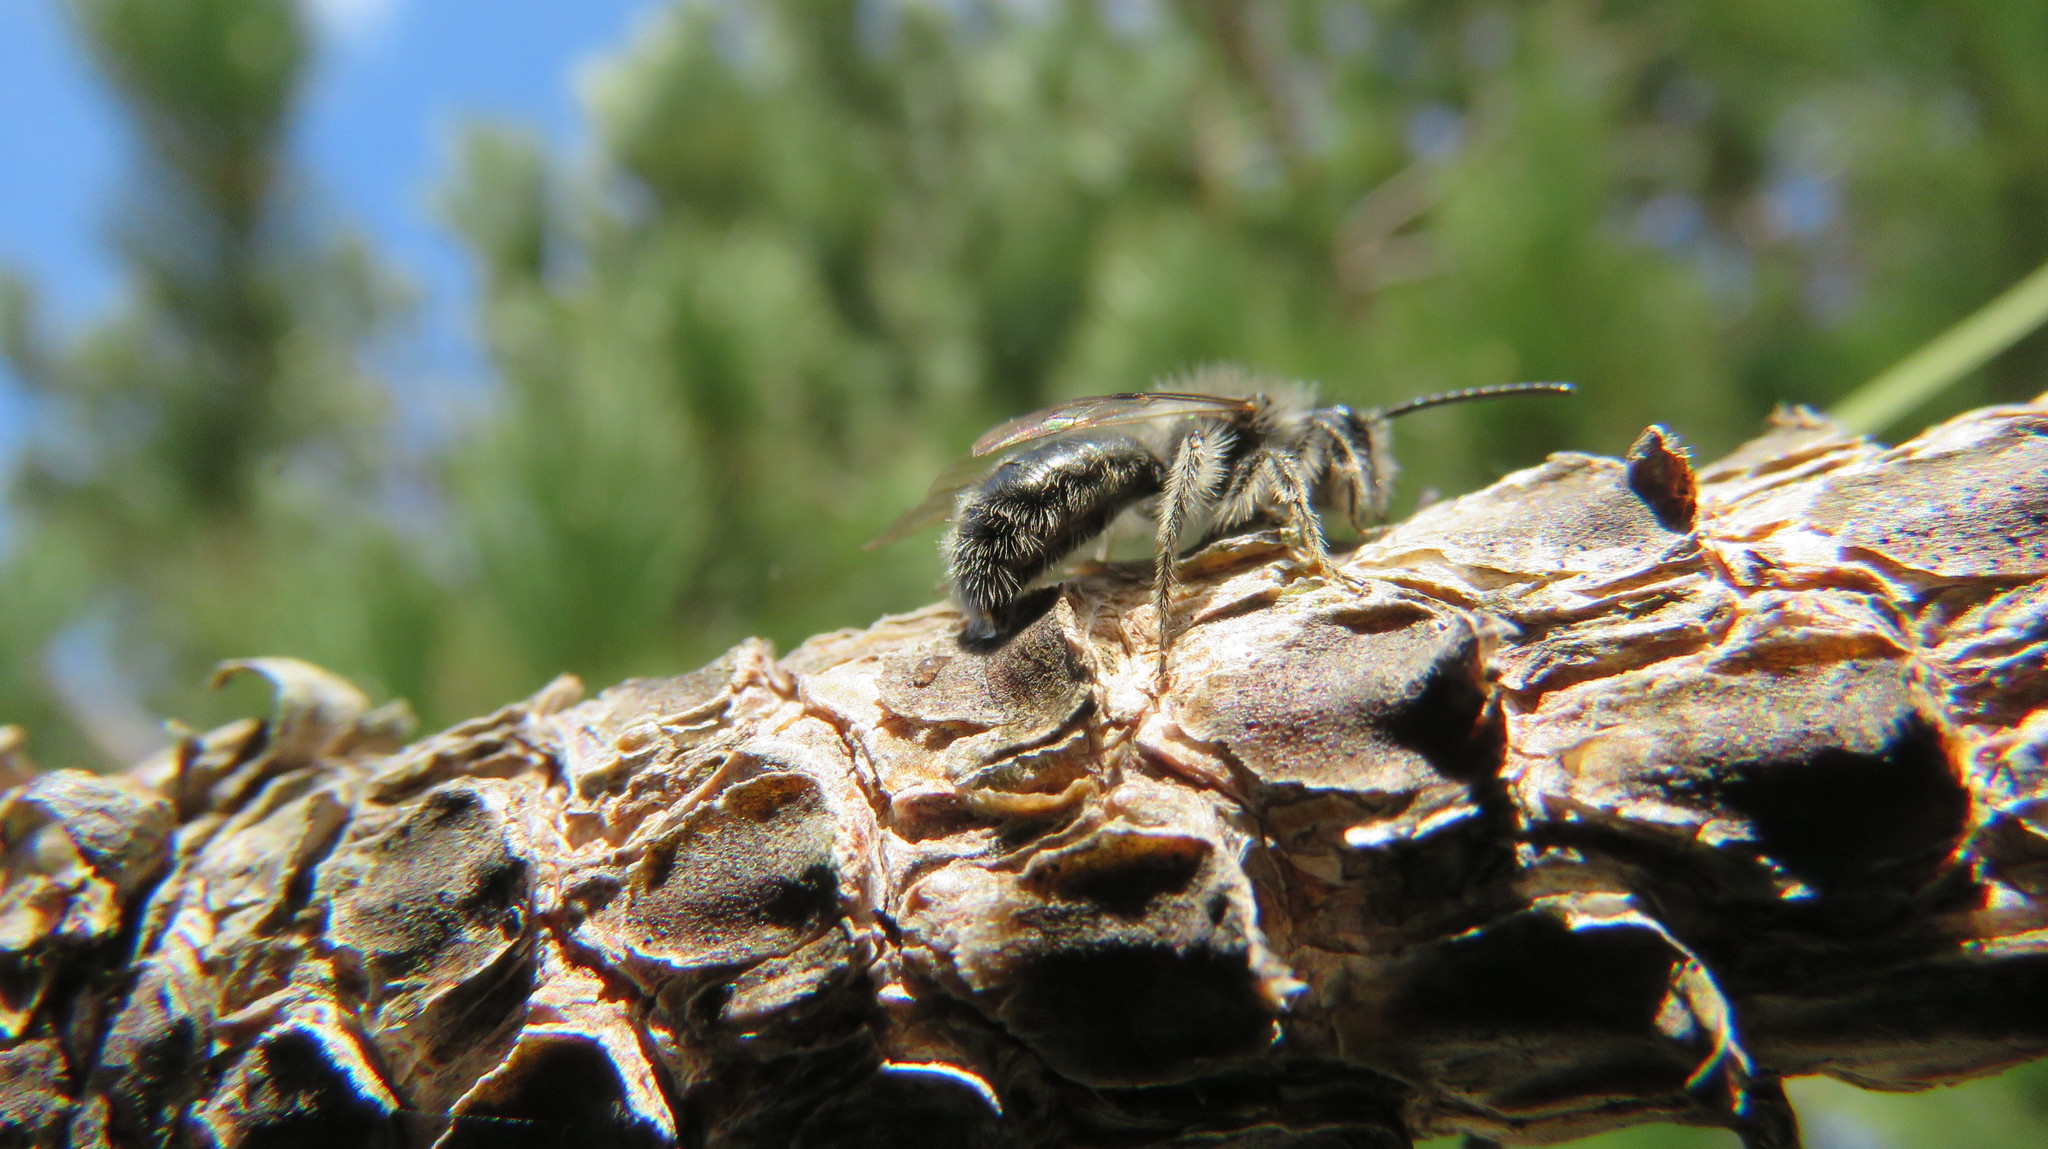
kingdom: Animalia
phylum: Arthropoda
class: Insecta
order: Hymenoptera
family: Andrenidae
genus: Andrena
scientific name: Andrena frigida
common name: Frigid mining bee
